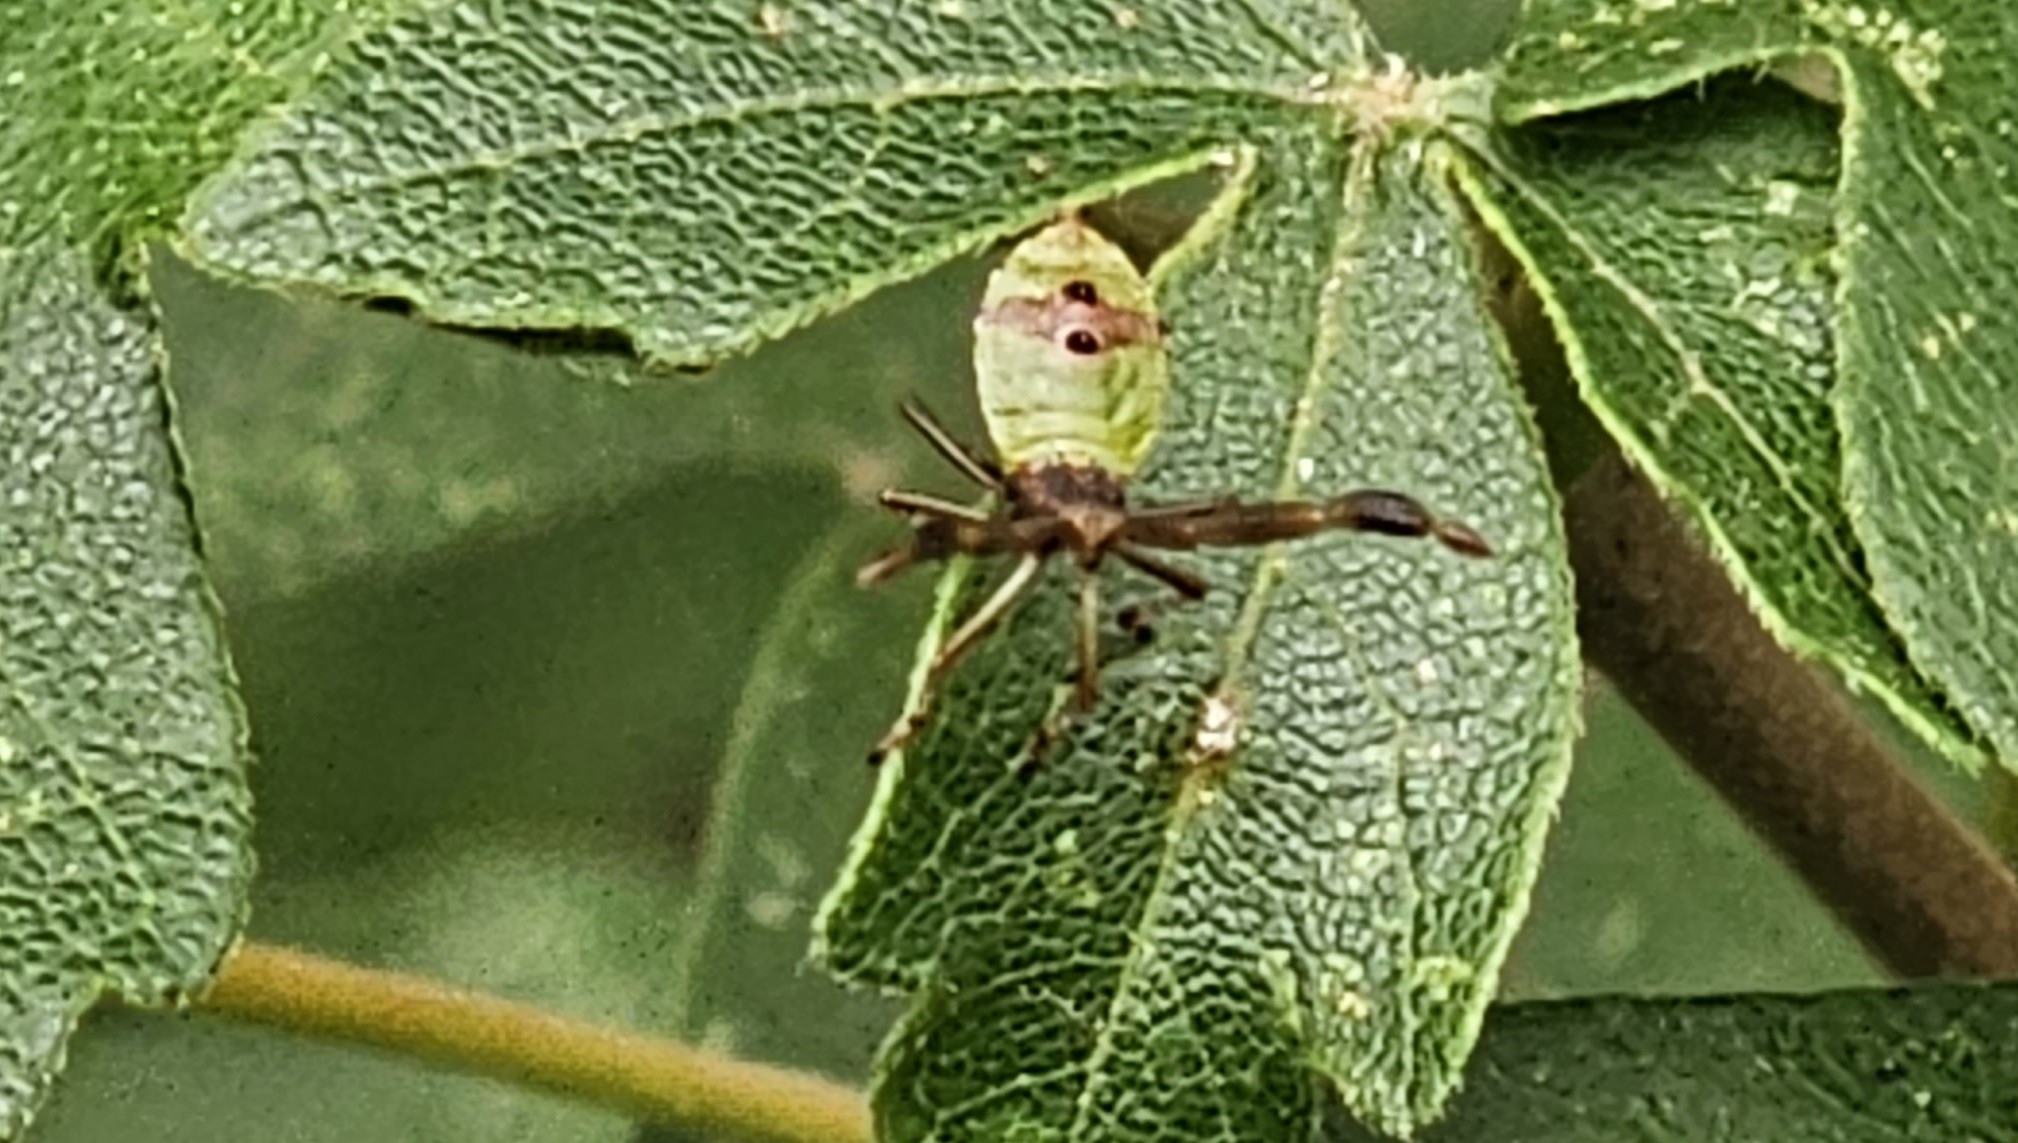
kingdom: Animalia
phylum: Arthropoda
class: Insecta
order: Hemiptera
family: Coreidae
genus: Gonocerus
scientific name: Gonocerus acuteangulatus
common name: Box bug
